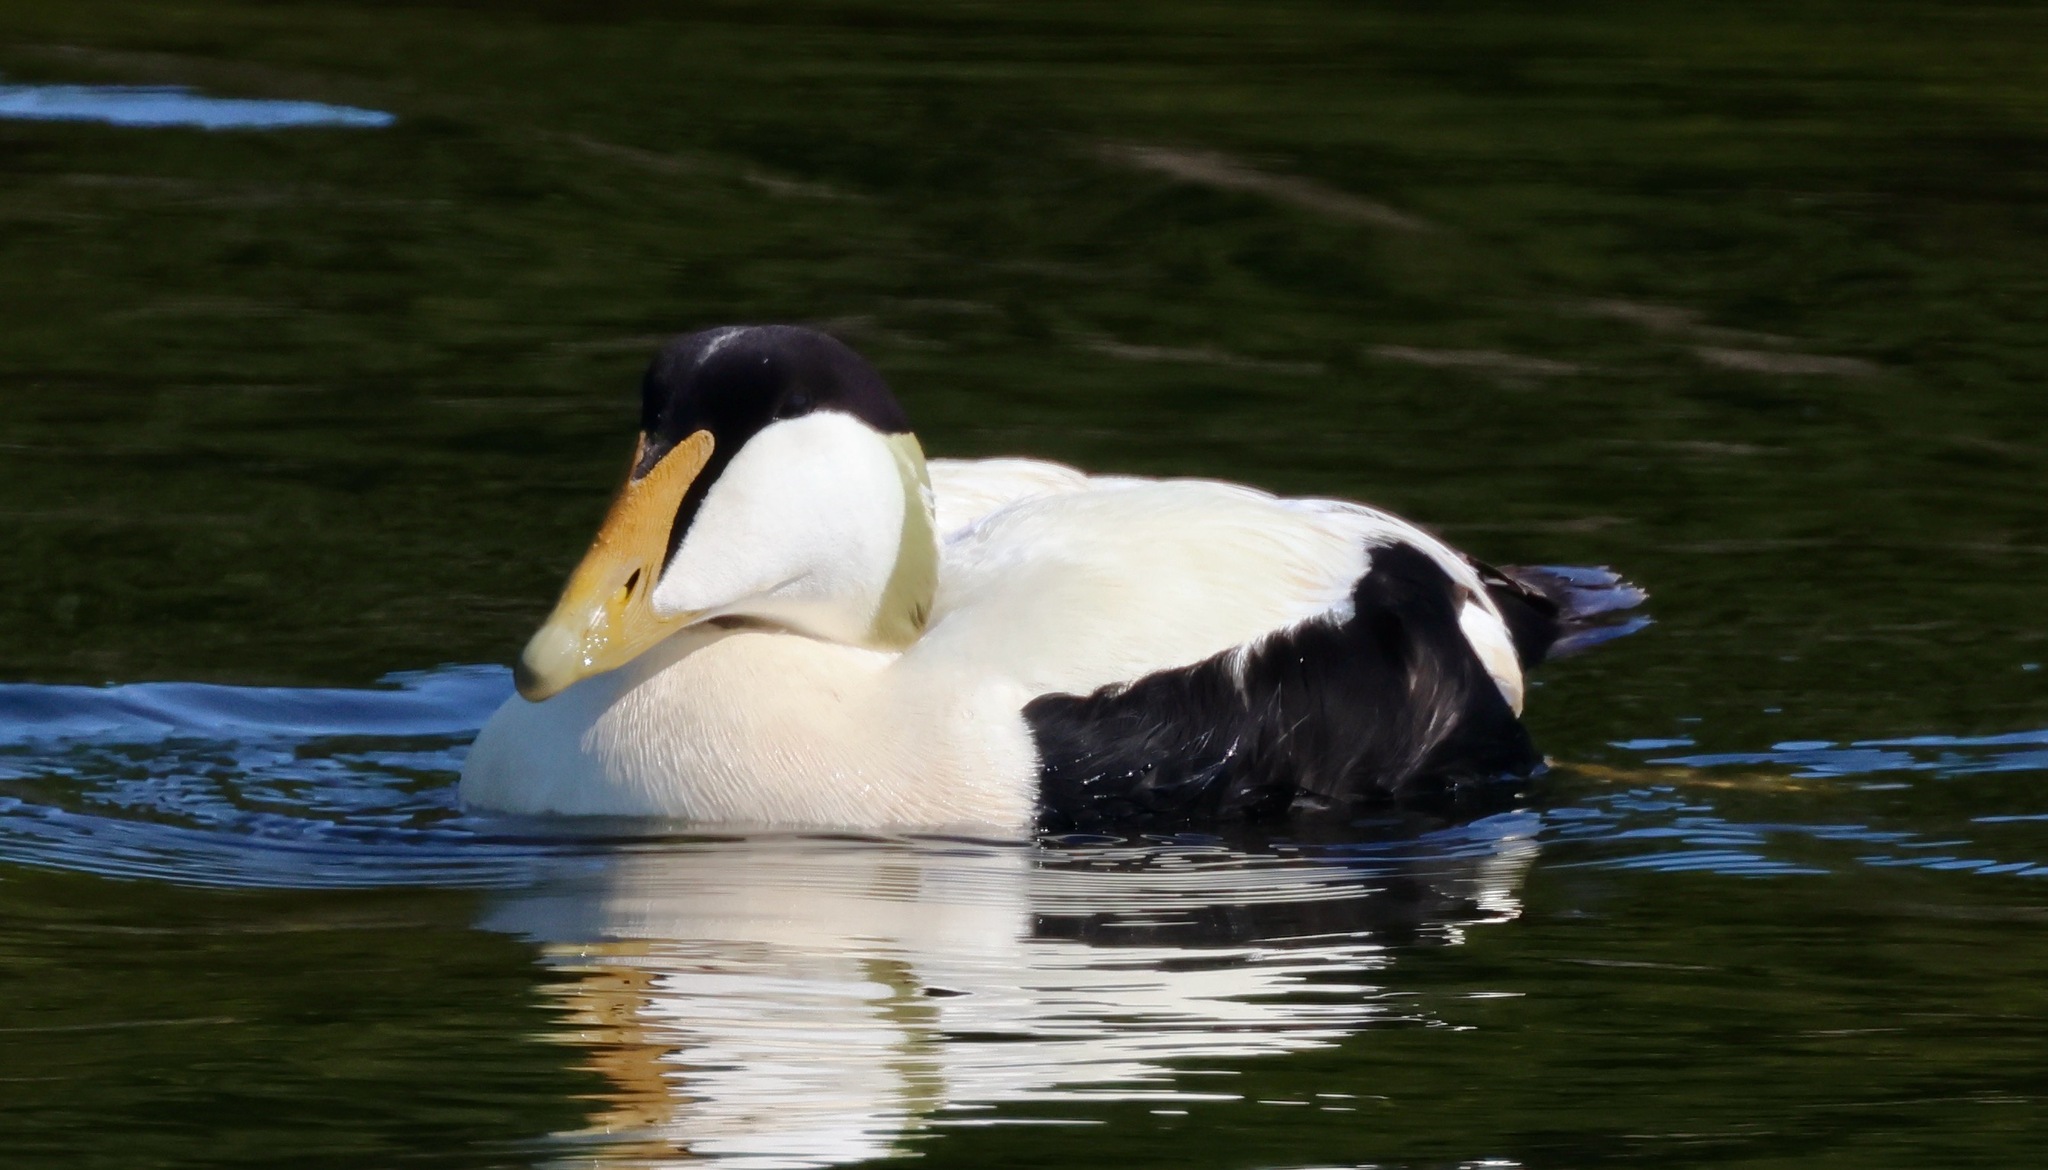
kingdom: Animalia
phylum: Chordata
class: Aves
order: Anseriformes
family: Anatidae
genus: Somateria
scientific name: Somateria mollissima
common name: Common eider
